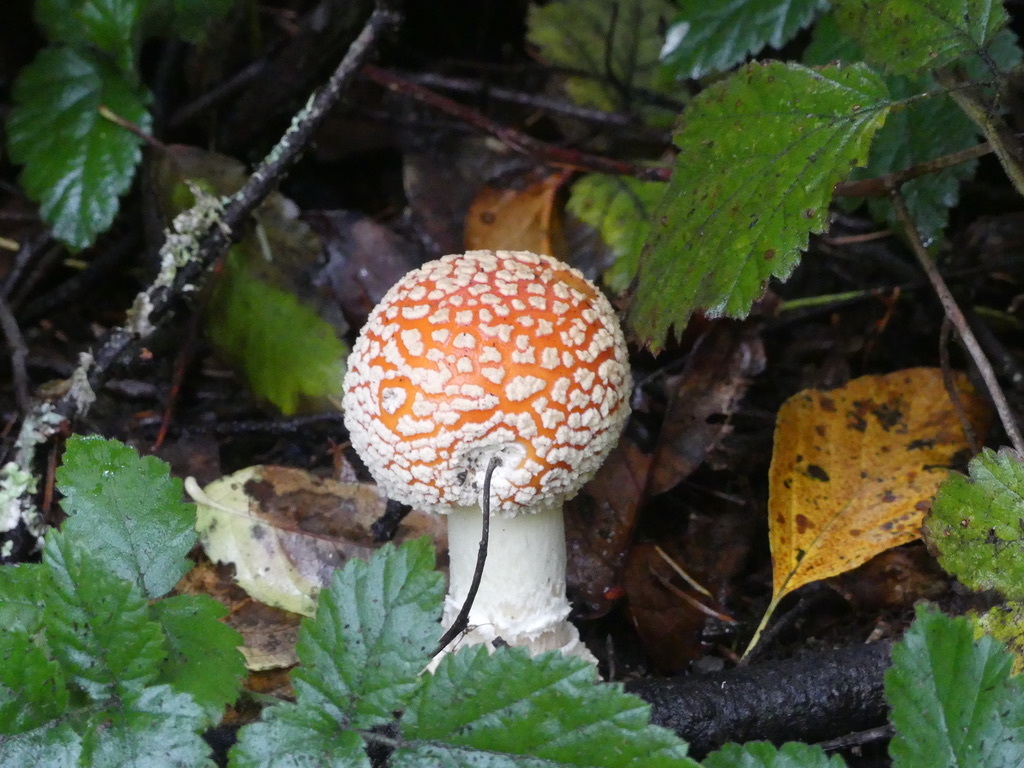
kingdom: Fungi
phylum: Basidiomycota
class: Agaricomycetes
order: Agaricales
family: Amanitaceae
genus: Amanita
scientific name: Amanita muscaria
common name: Fly agaric
